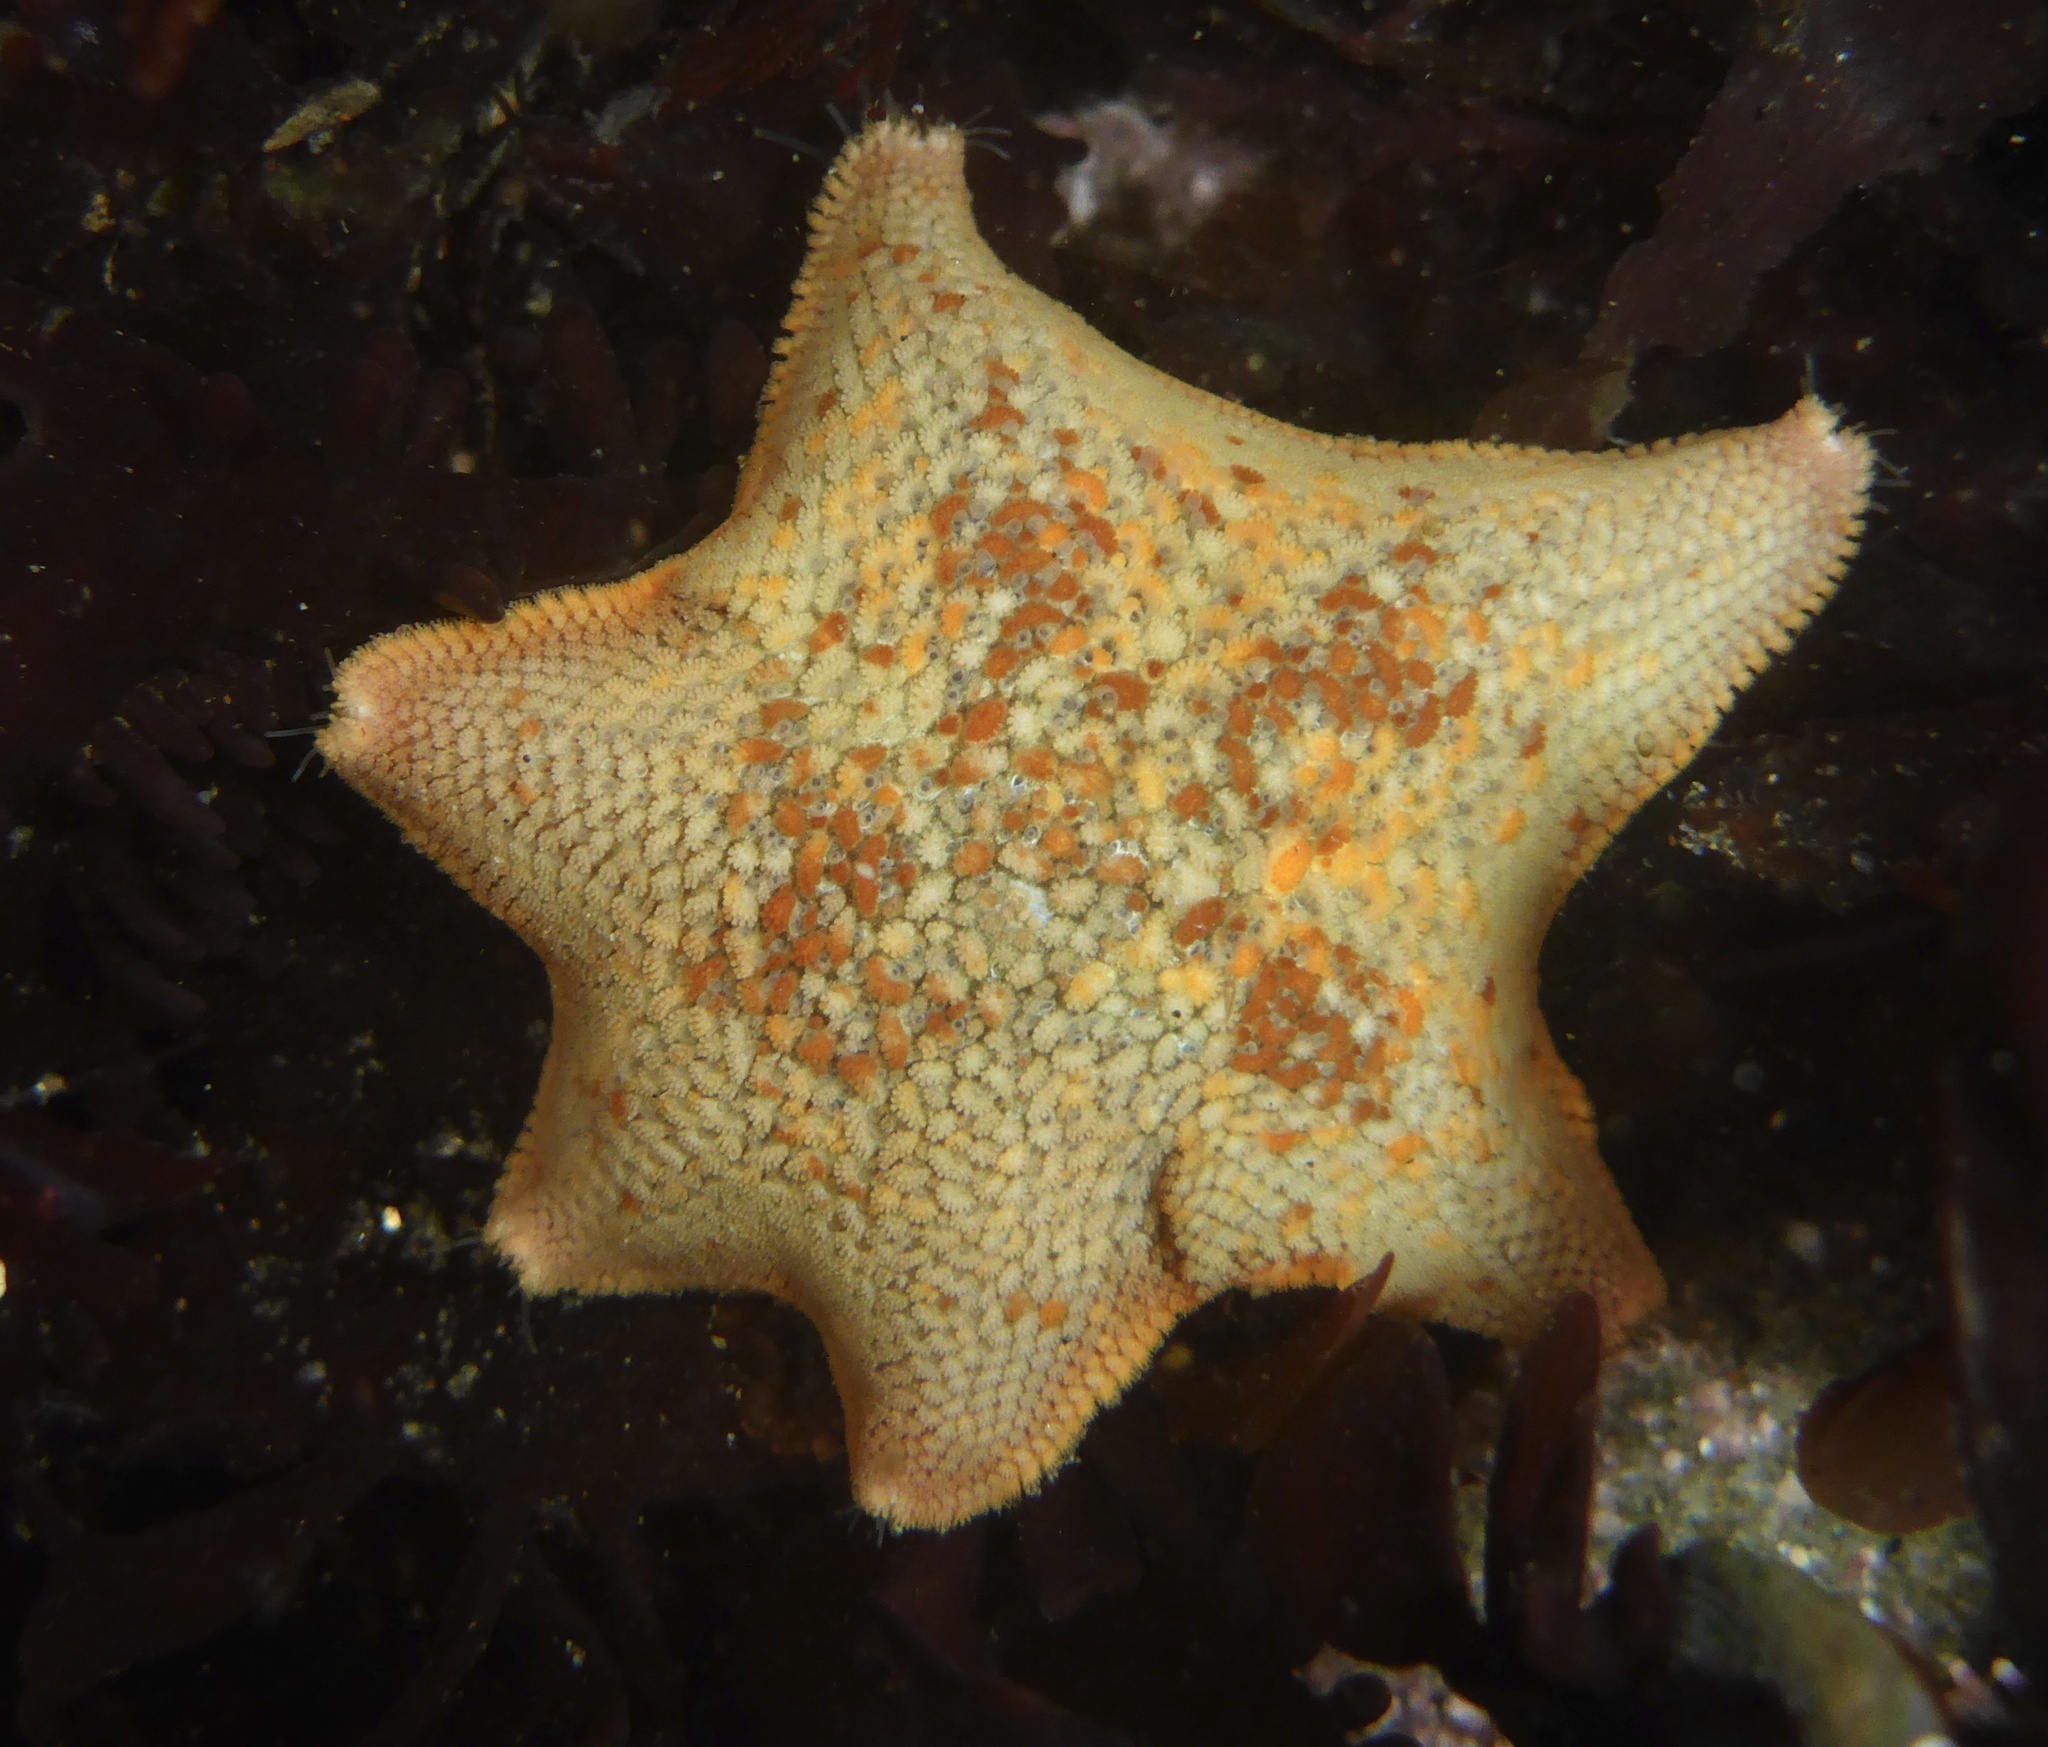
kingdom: Animalia
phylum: Echinodermata
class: Asteroidea
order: Valvatida
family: Asterinidae
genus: Patiria
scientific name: Patiria miniata
